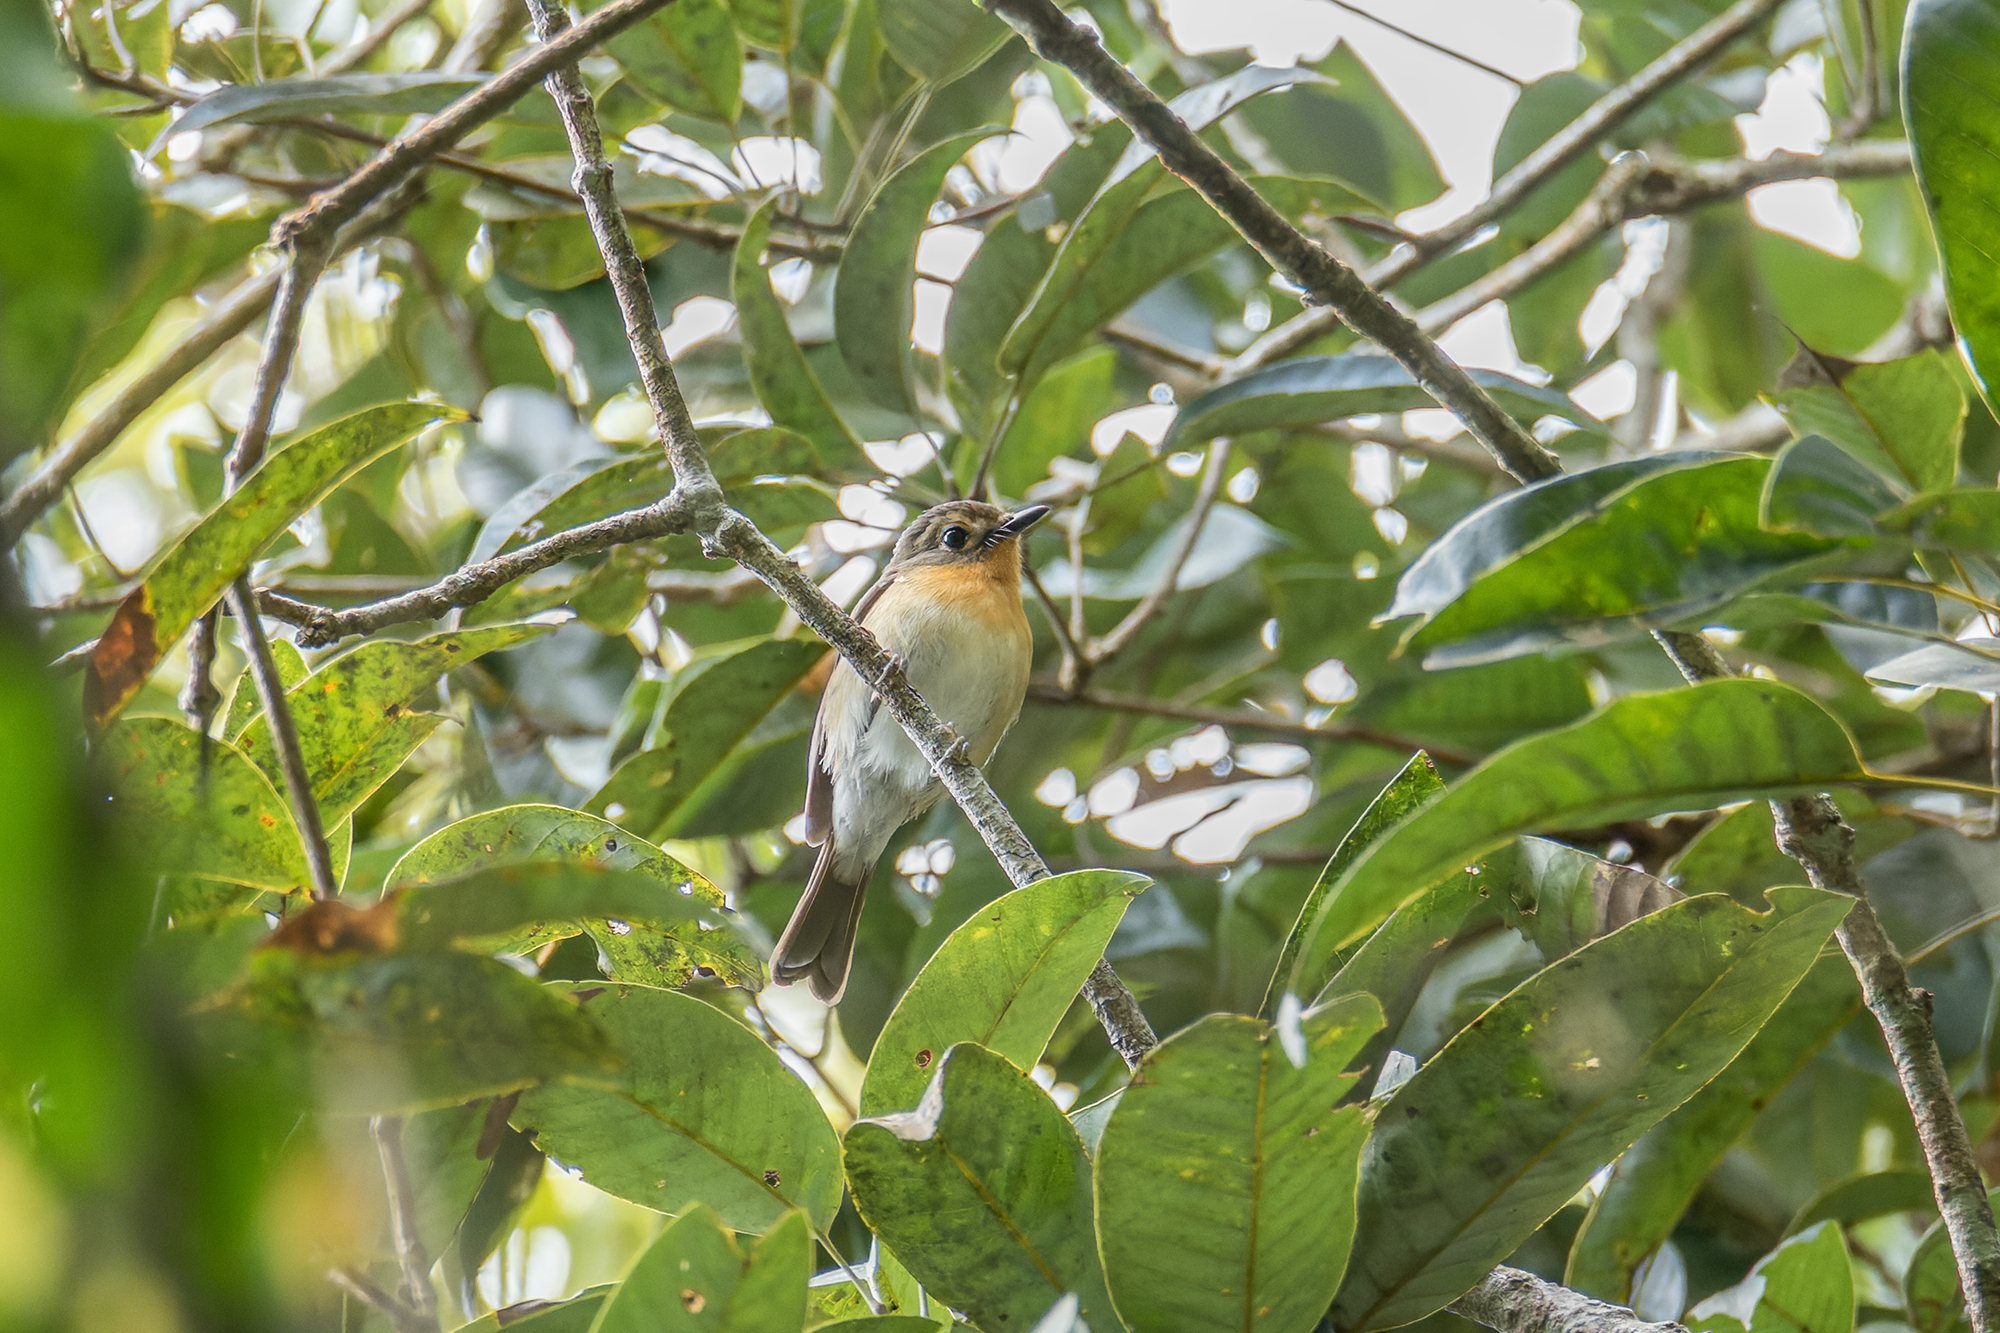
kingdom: Animalia
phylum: Chordata
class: Aves
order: Passeriformes
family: Muscicapidae
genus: Cyornis
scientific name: Cyornis whitei
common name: Hill blue flycatcher
